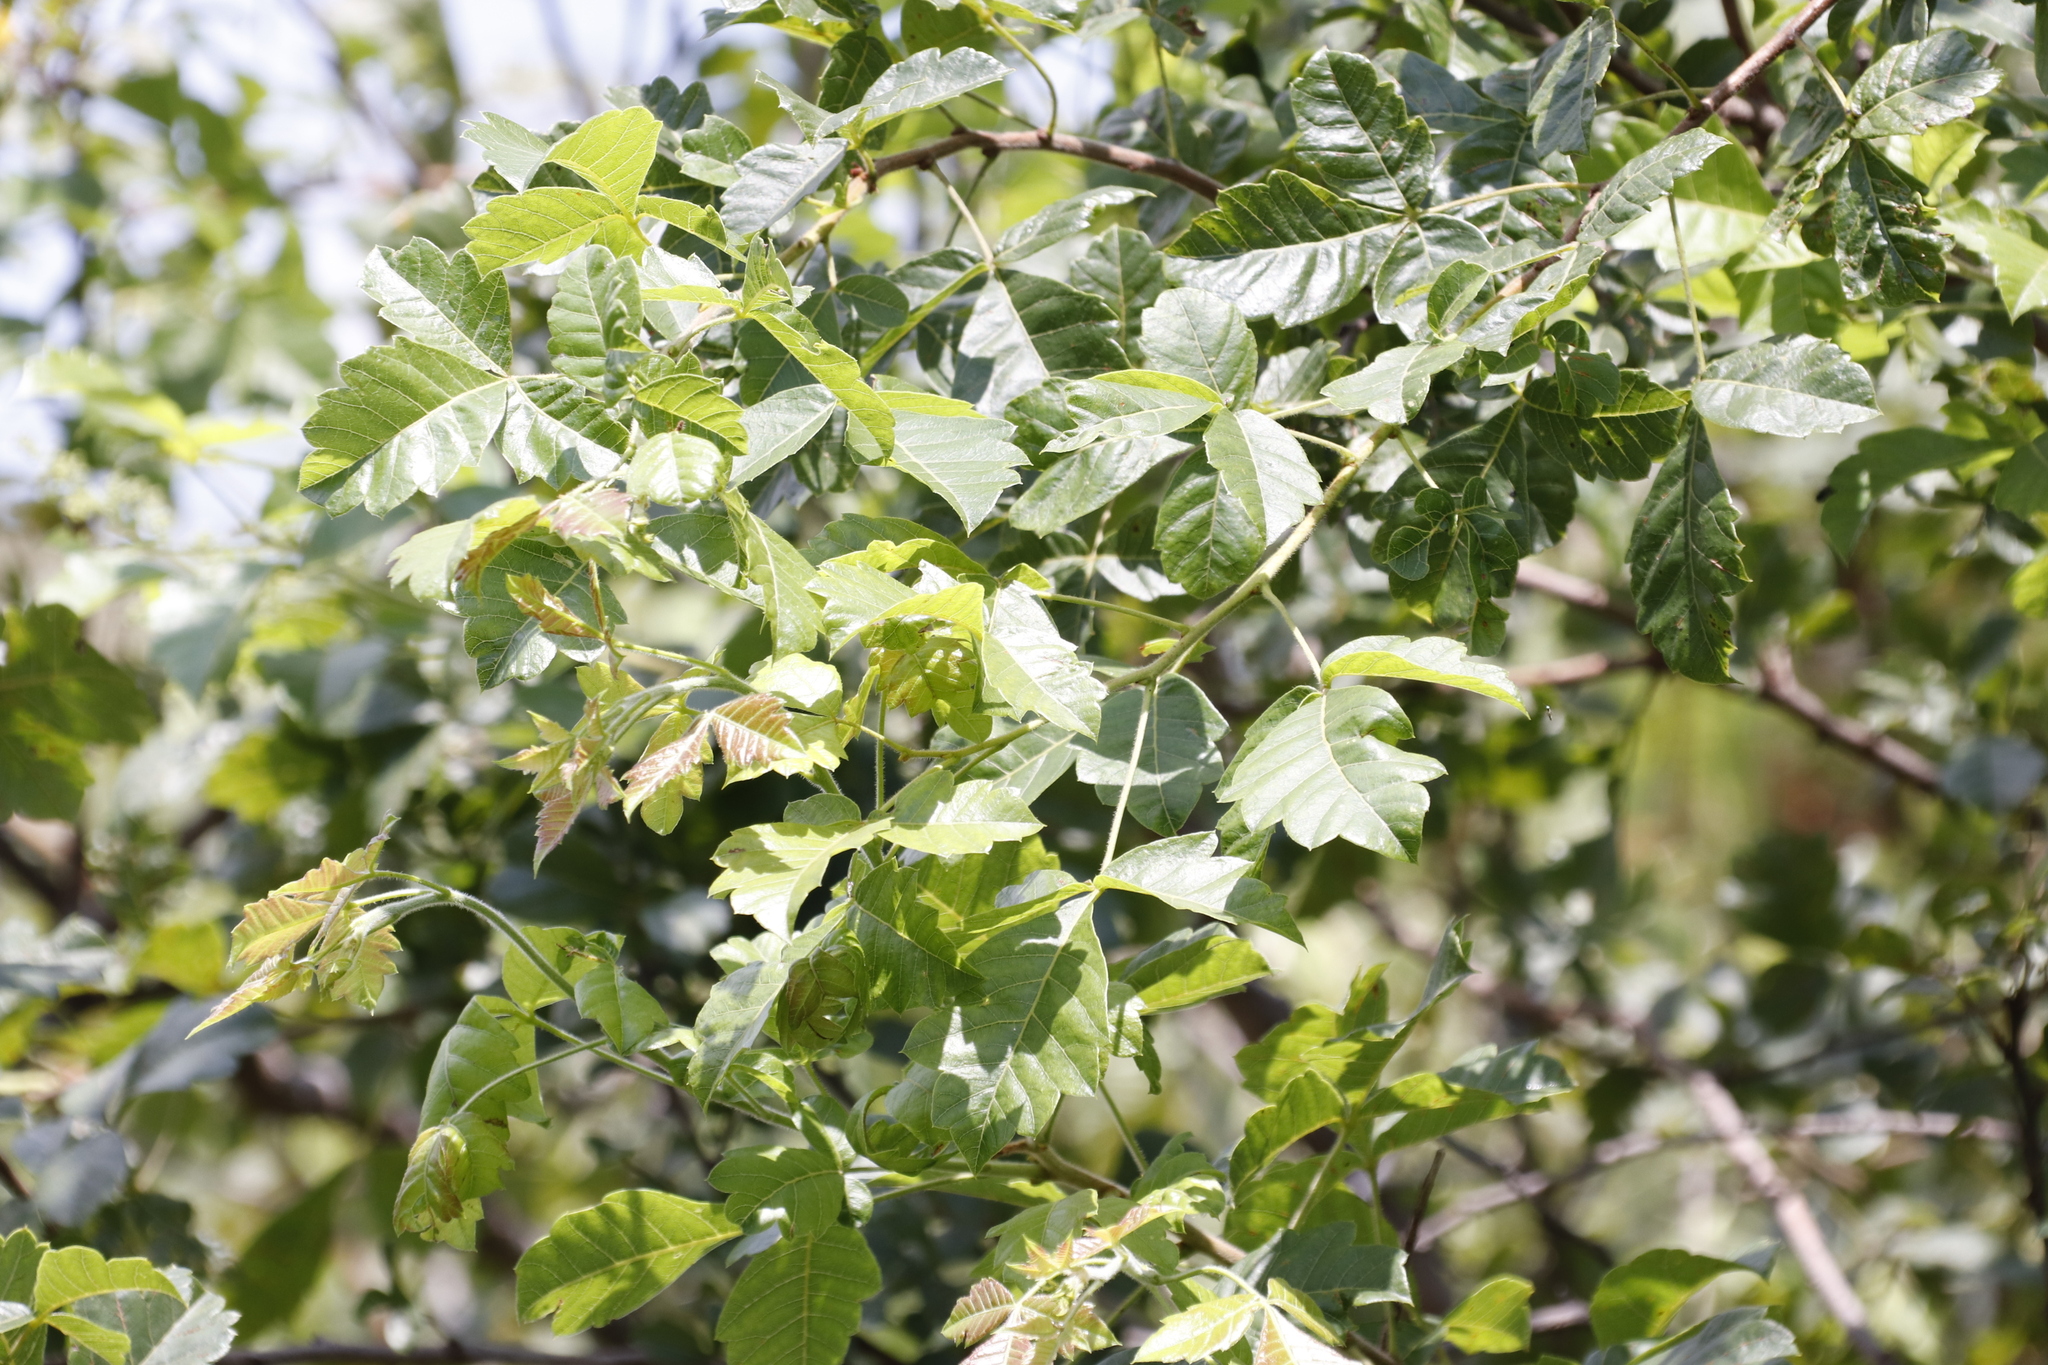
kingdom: Plantae
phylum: Tracheophyta
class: Magnoliopsida
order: Sapindales
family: Anacardiaceae
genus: Searsia
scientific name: Searsia dentata
